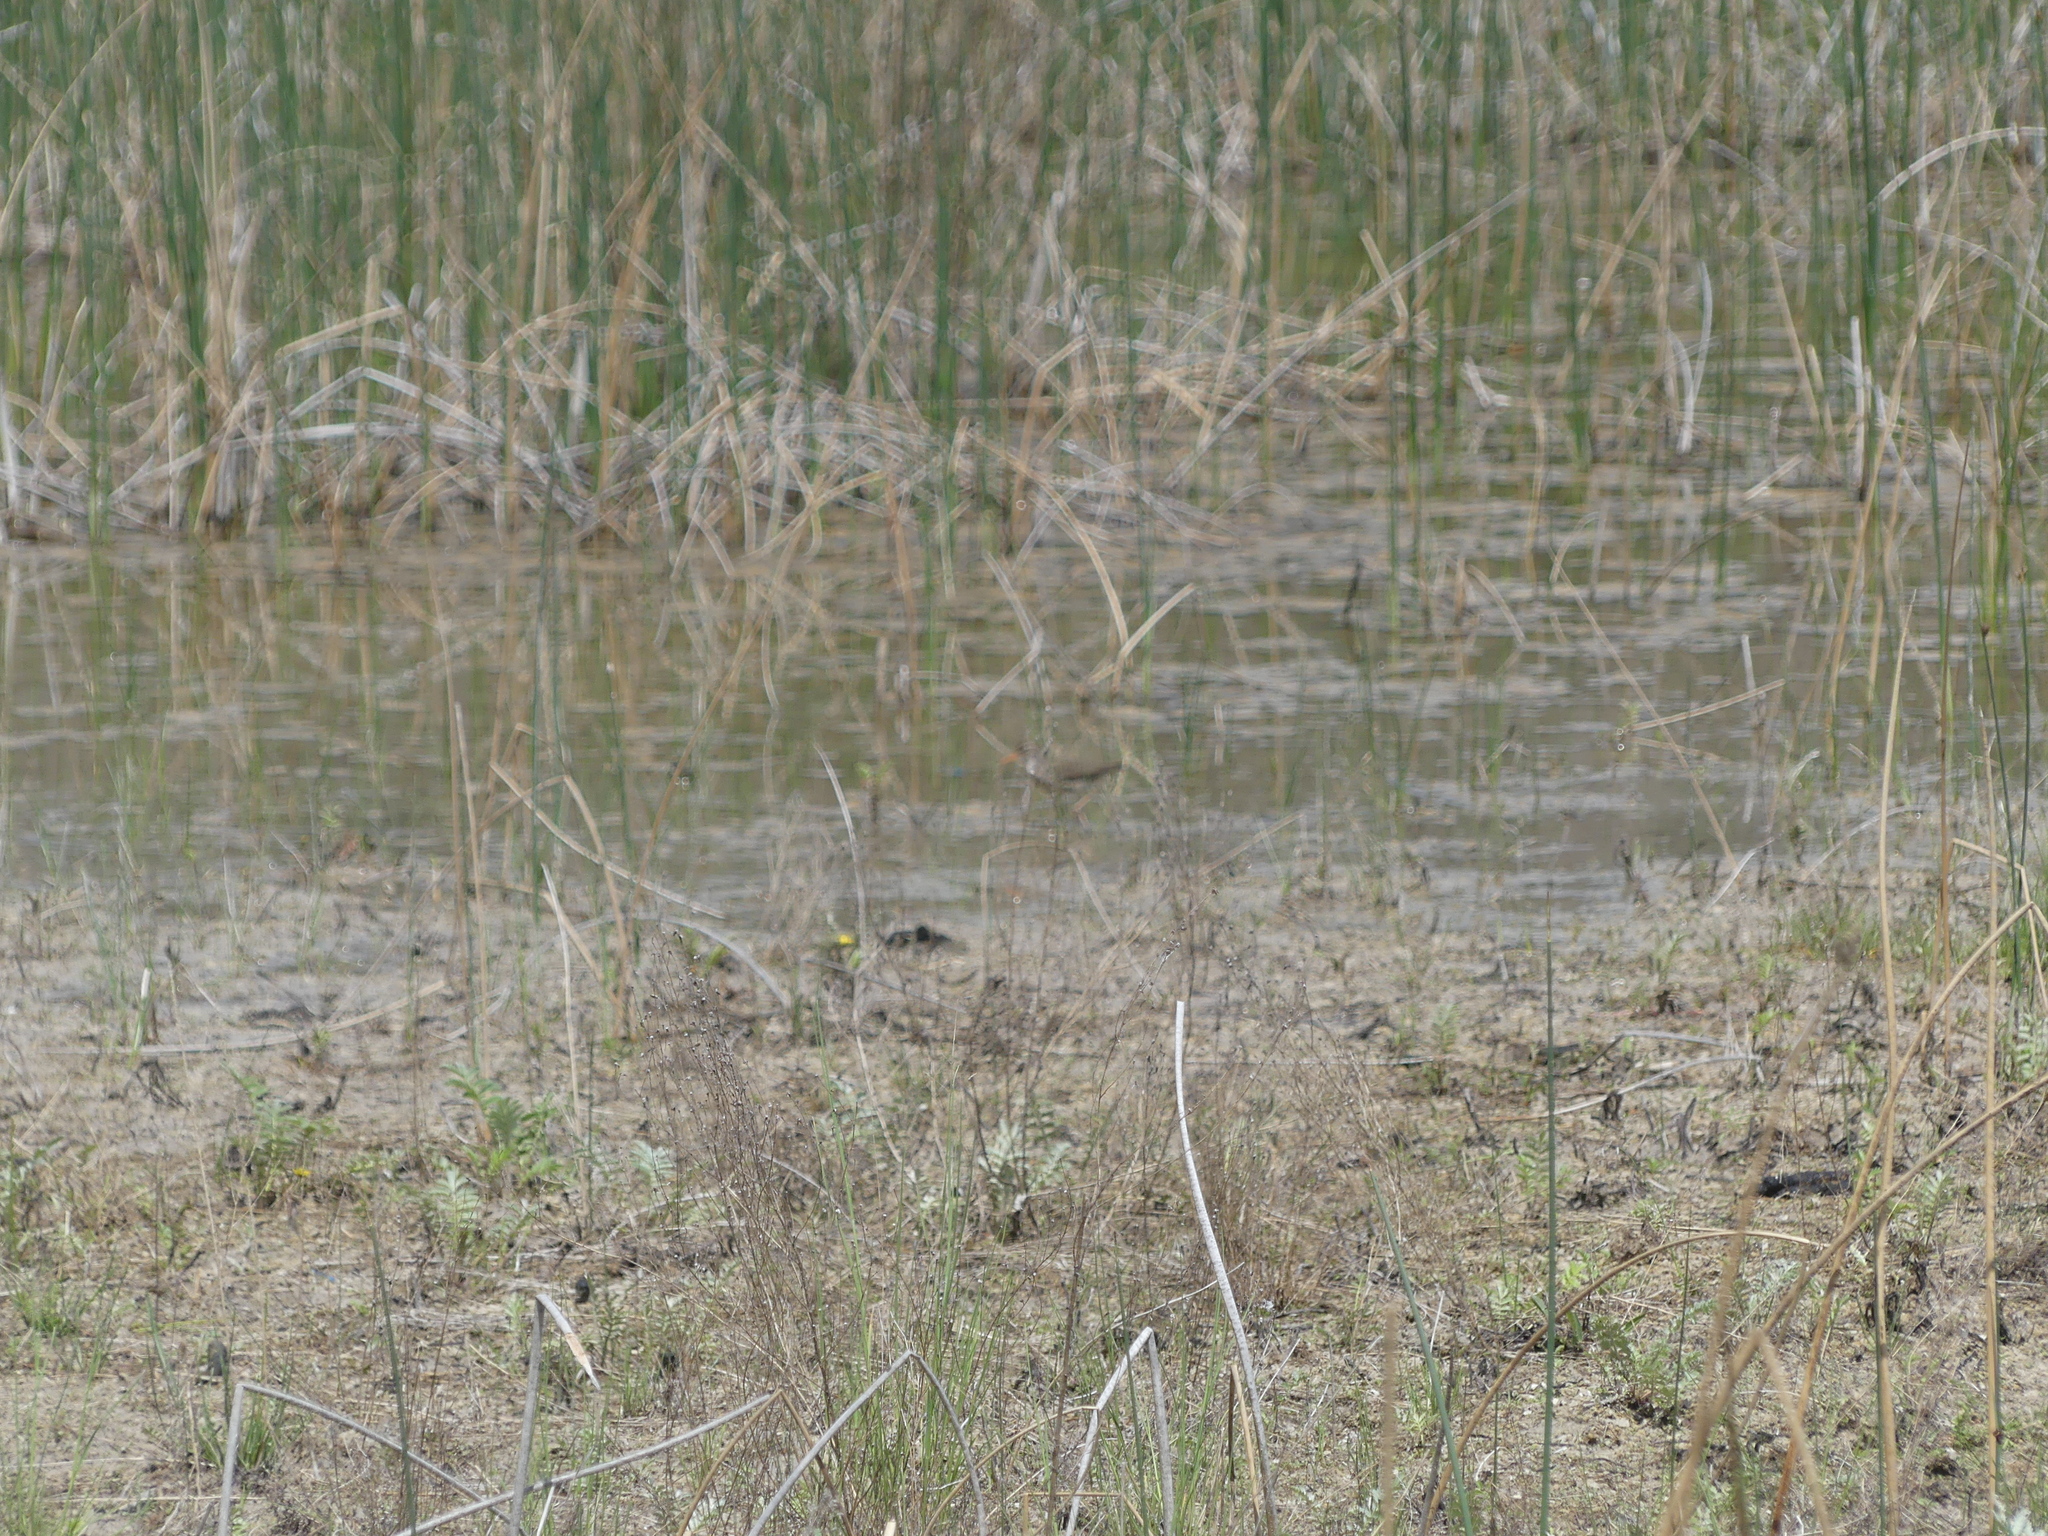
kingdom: Animalia
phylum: Chordata
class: Aves
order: Charadriiformes
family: Scolopacidae
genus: Actitis
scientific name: Actitis macularius
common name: Spotted sandpiper
